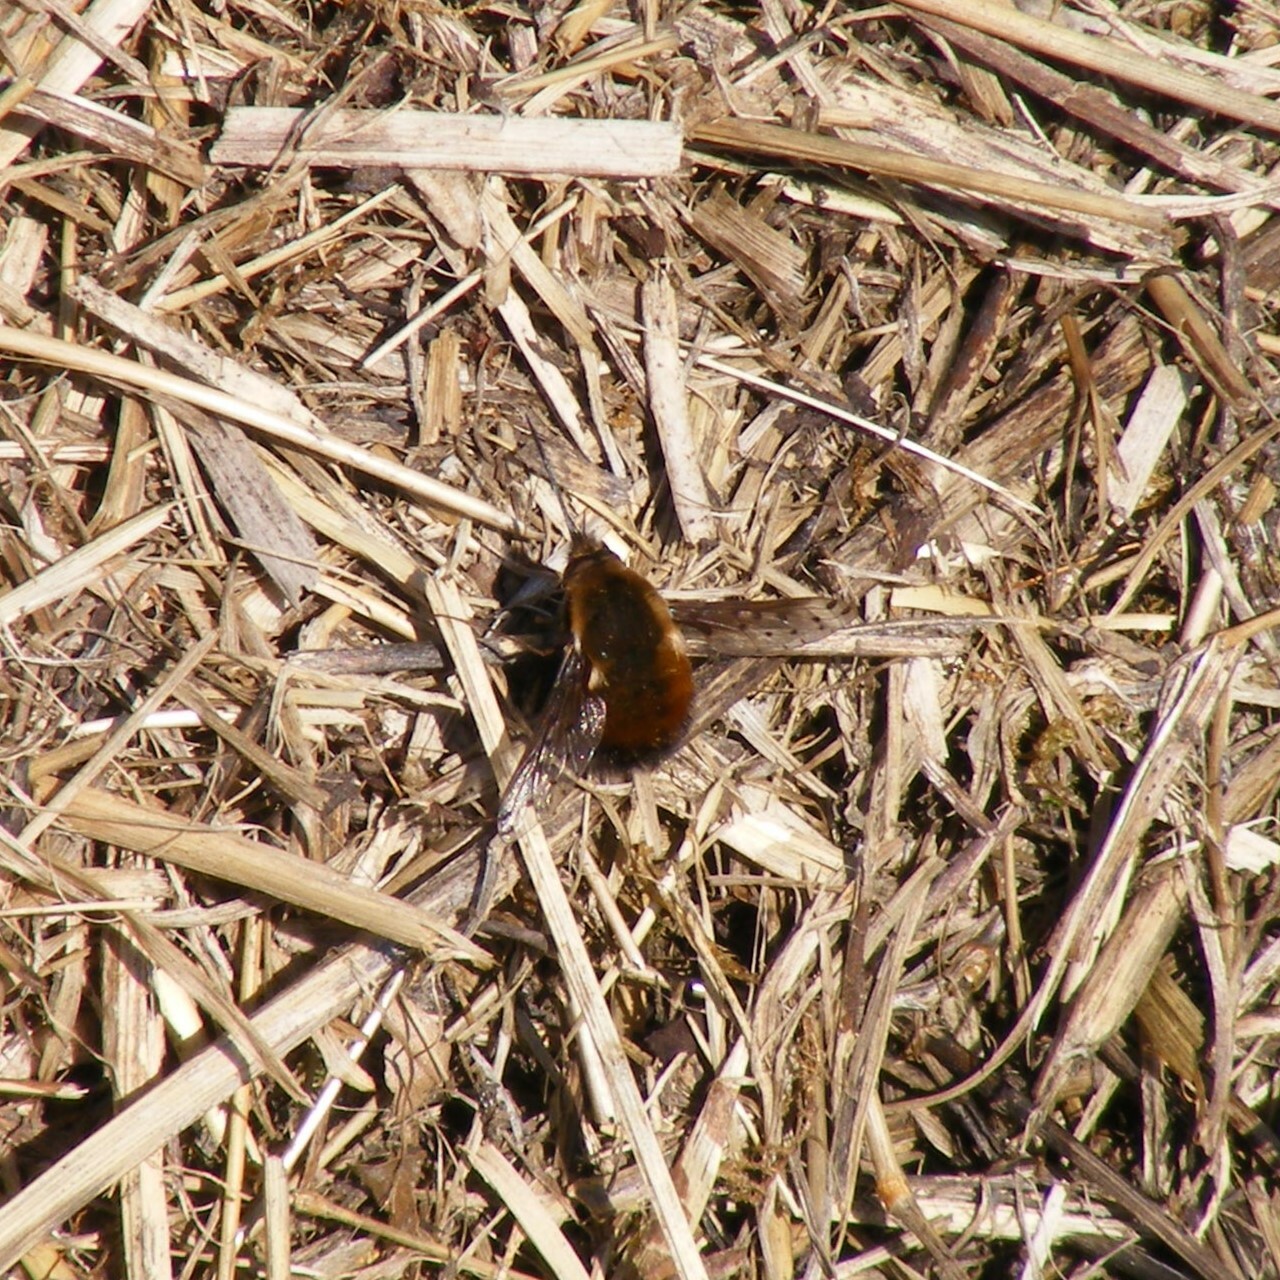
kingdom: Animalia
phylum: Arthropoda
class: Insecta
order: Diptera
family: Bombyliidae
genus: Bombylius
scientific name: Bombylius discolor
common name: Dotted bee-fly
